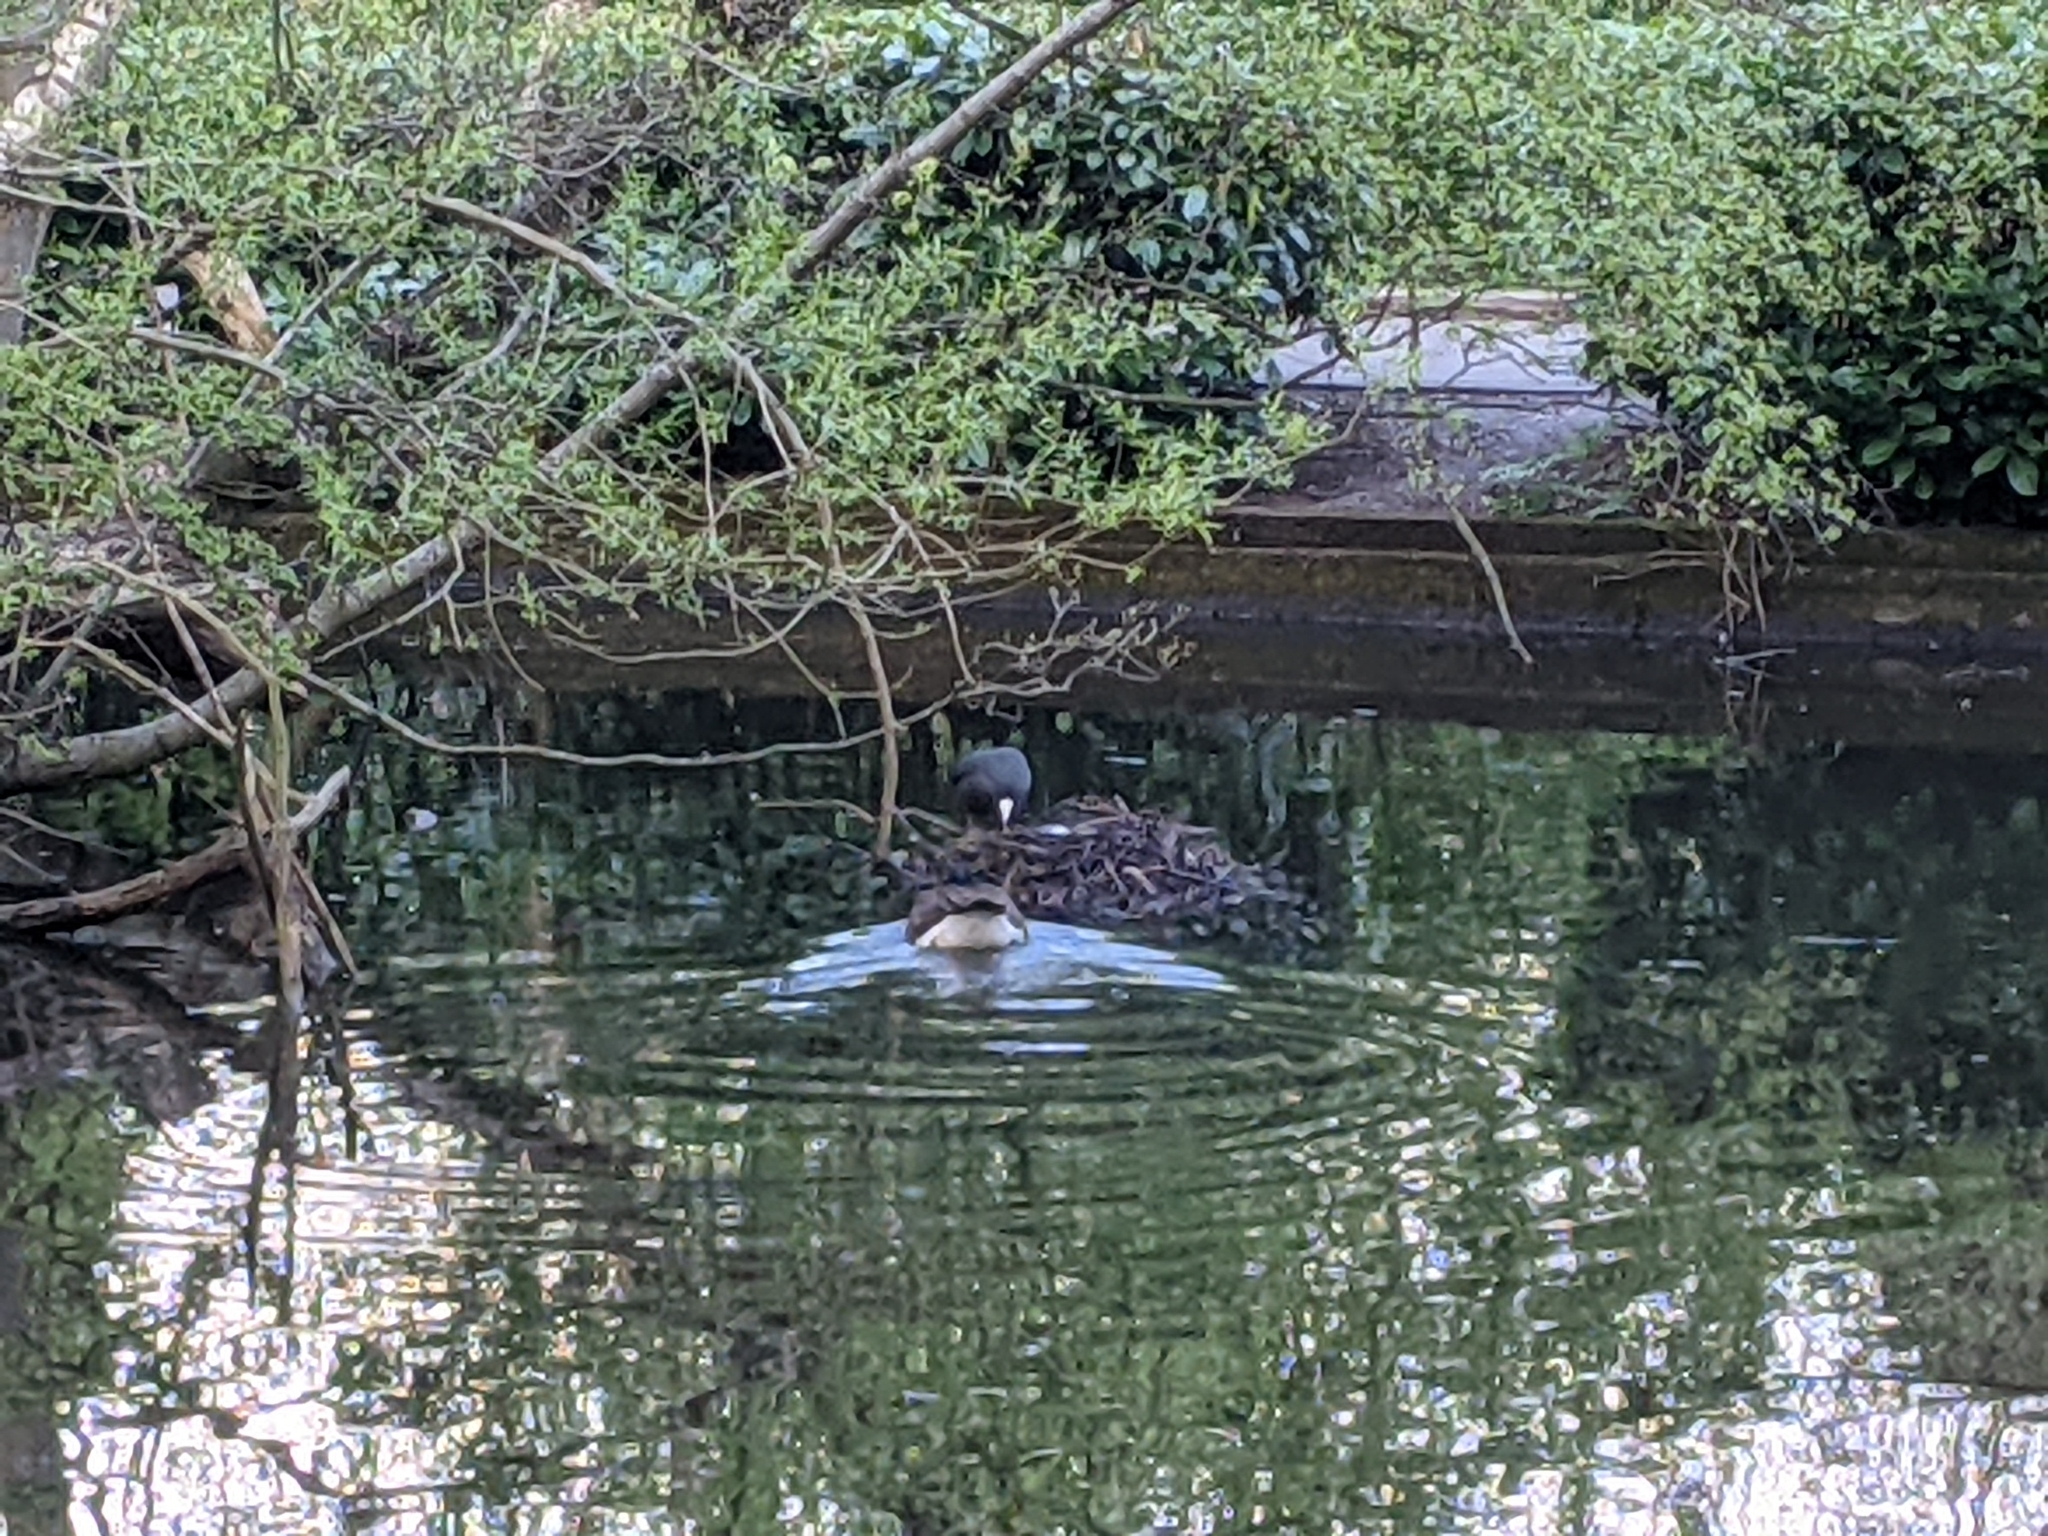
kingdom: Animalia
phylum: Chordata
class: Aves
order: Gruiformes
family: Rallidae
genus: Fulica
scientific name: Fulica atra
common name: Eurasian coot
